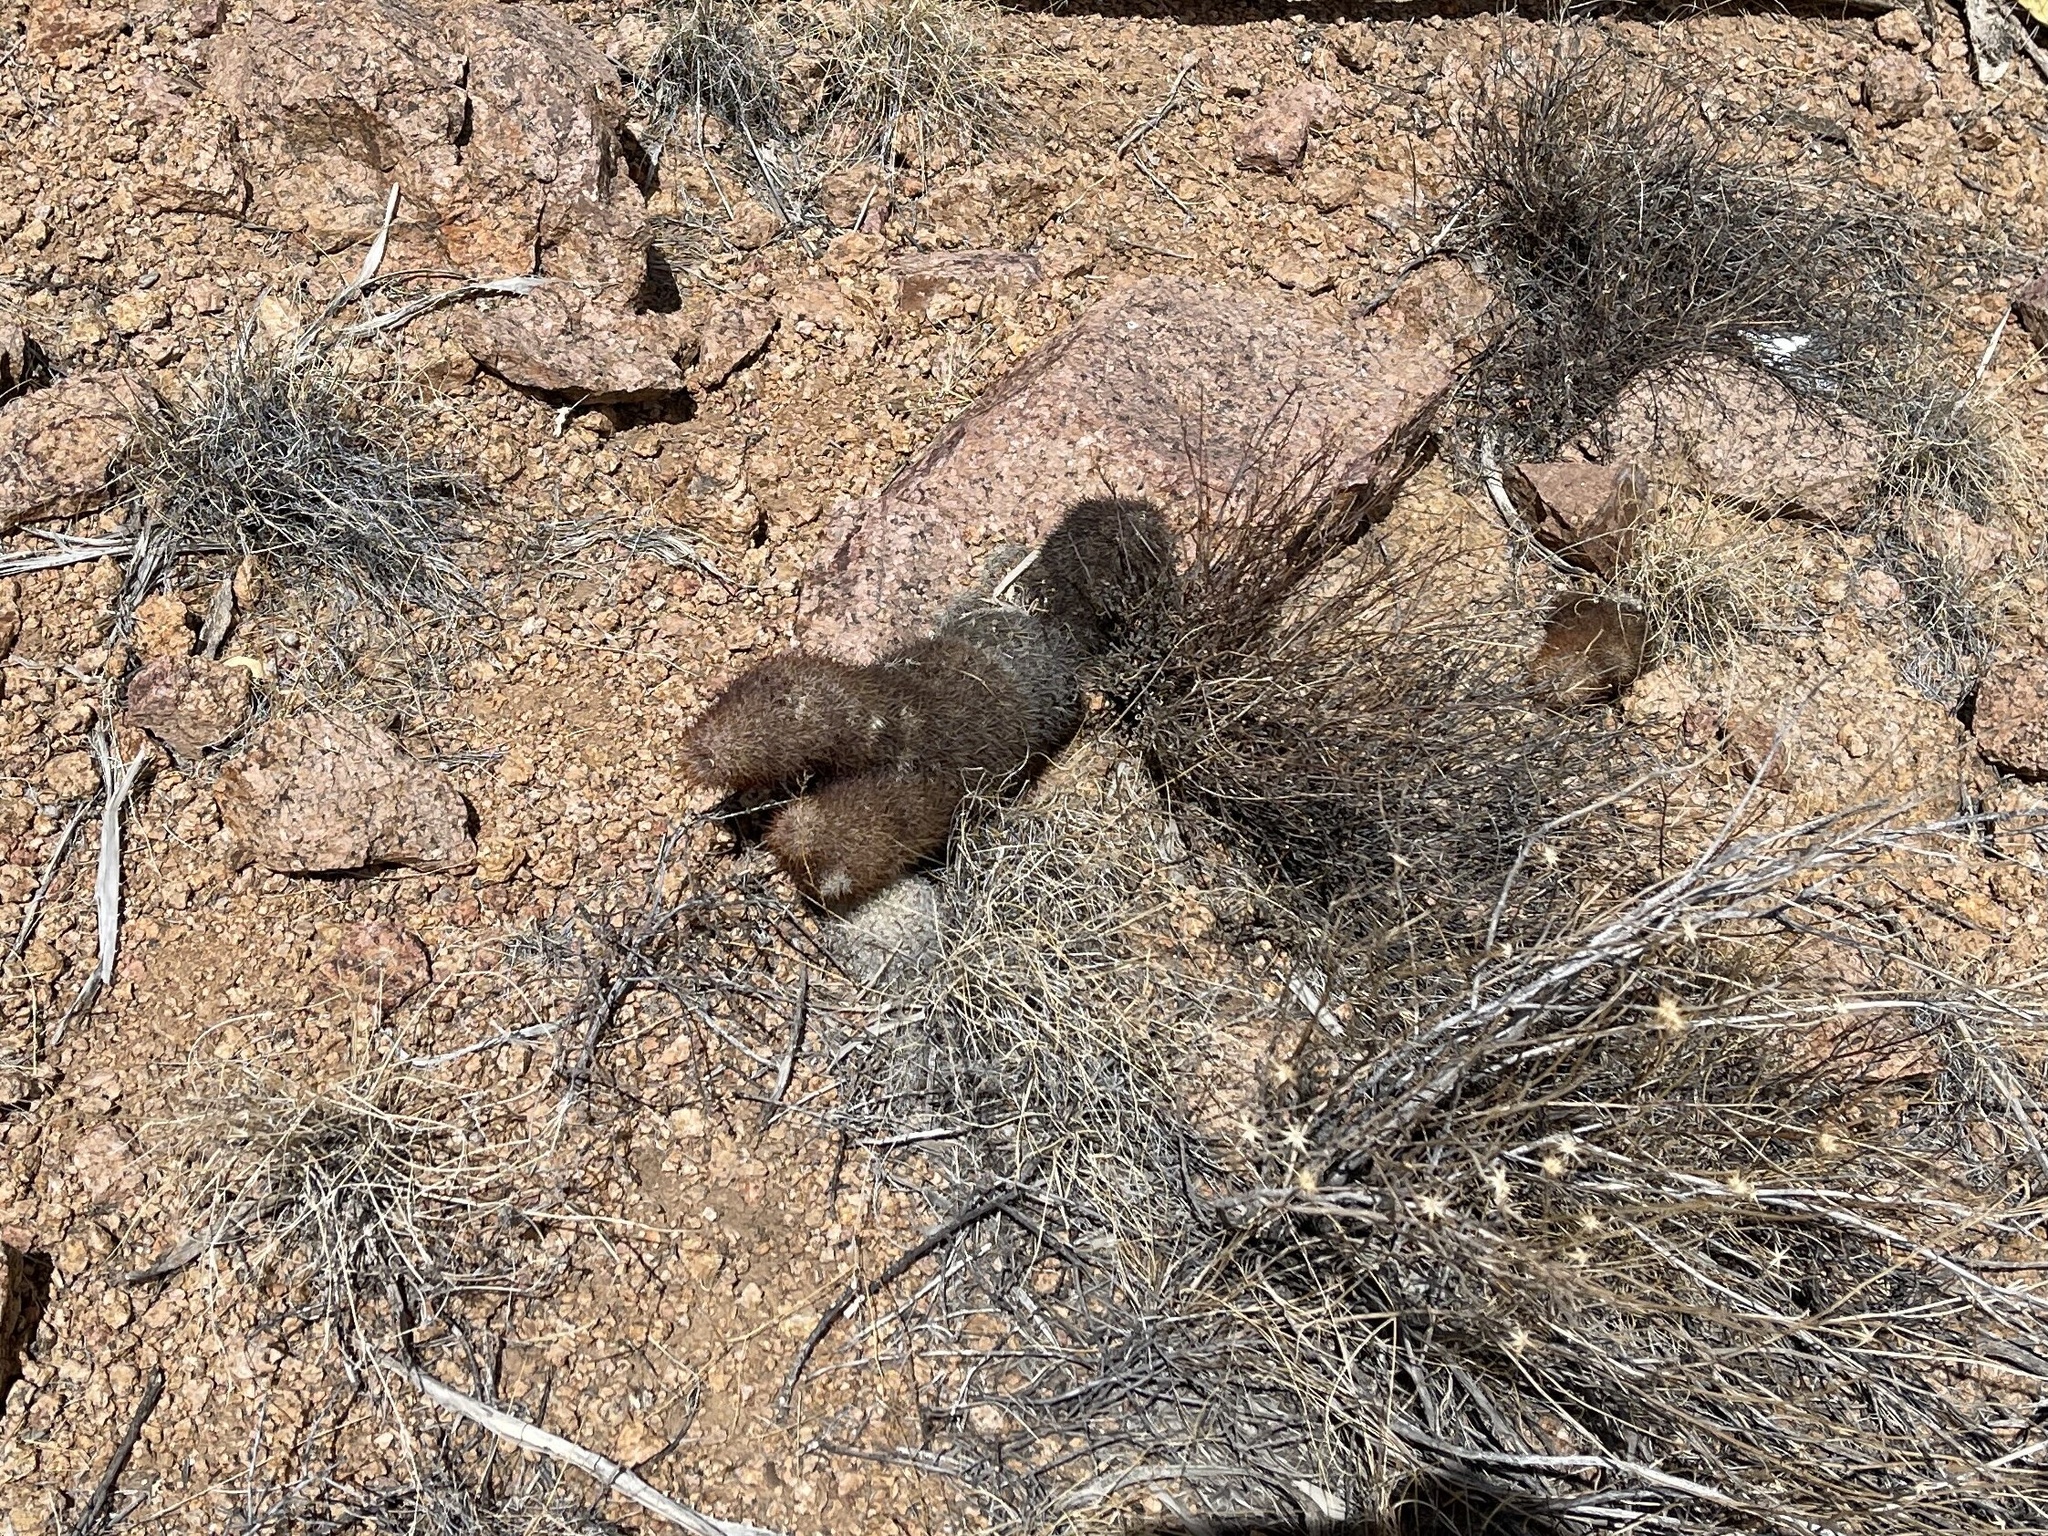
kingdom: Plantae
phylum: Tracheophyta
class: Magnoliopsida
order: Caryophyllales
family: Cactaceae
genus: Echinocereus
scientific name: Echinocereus dasyacanthus
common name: Spiny hedgehog cactus
